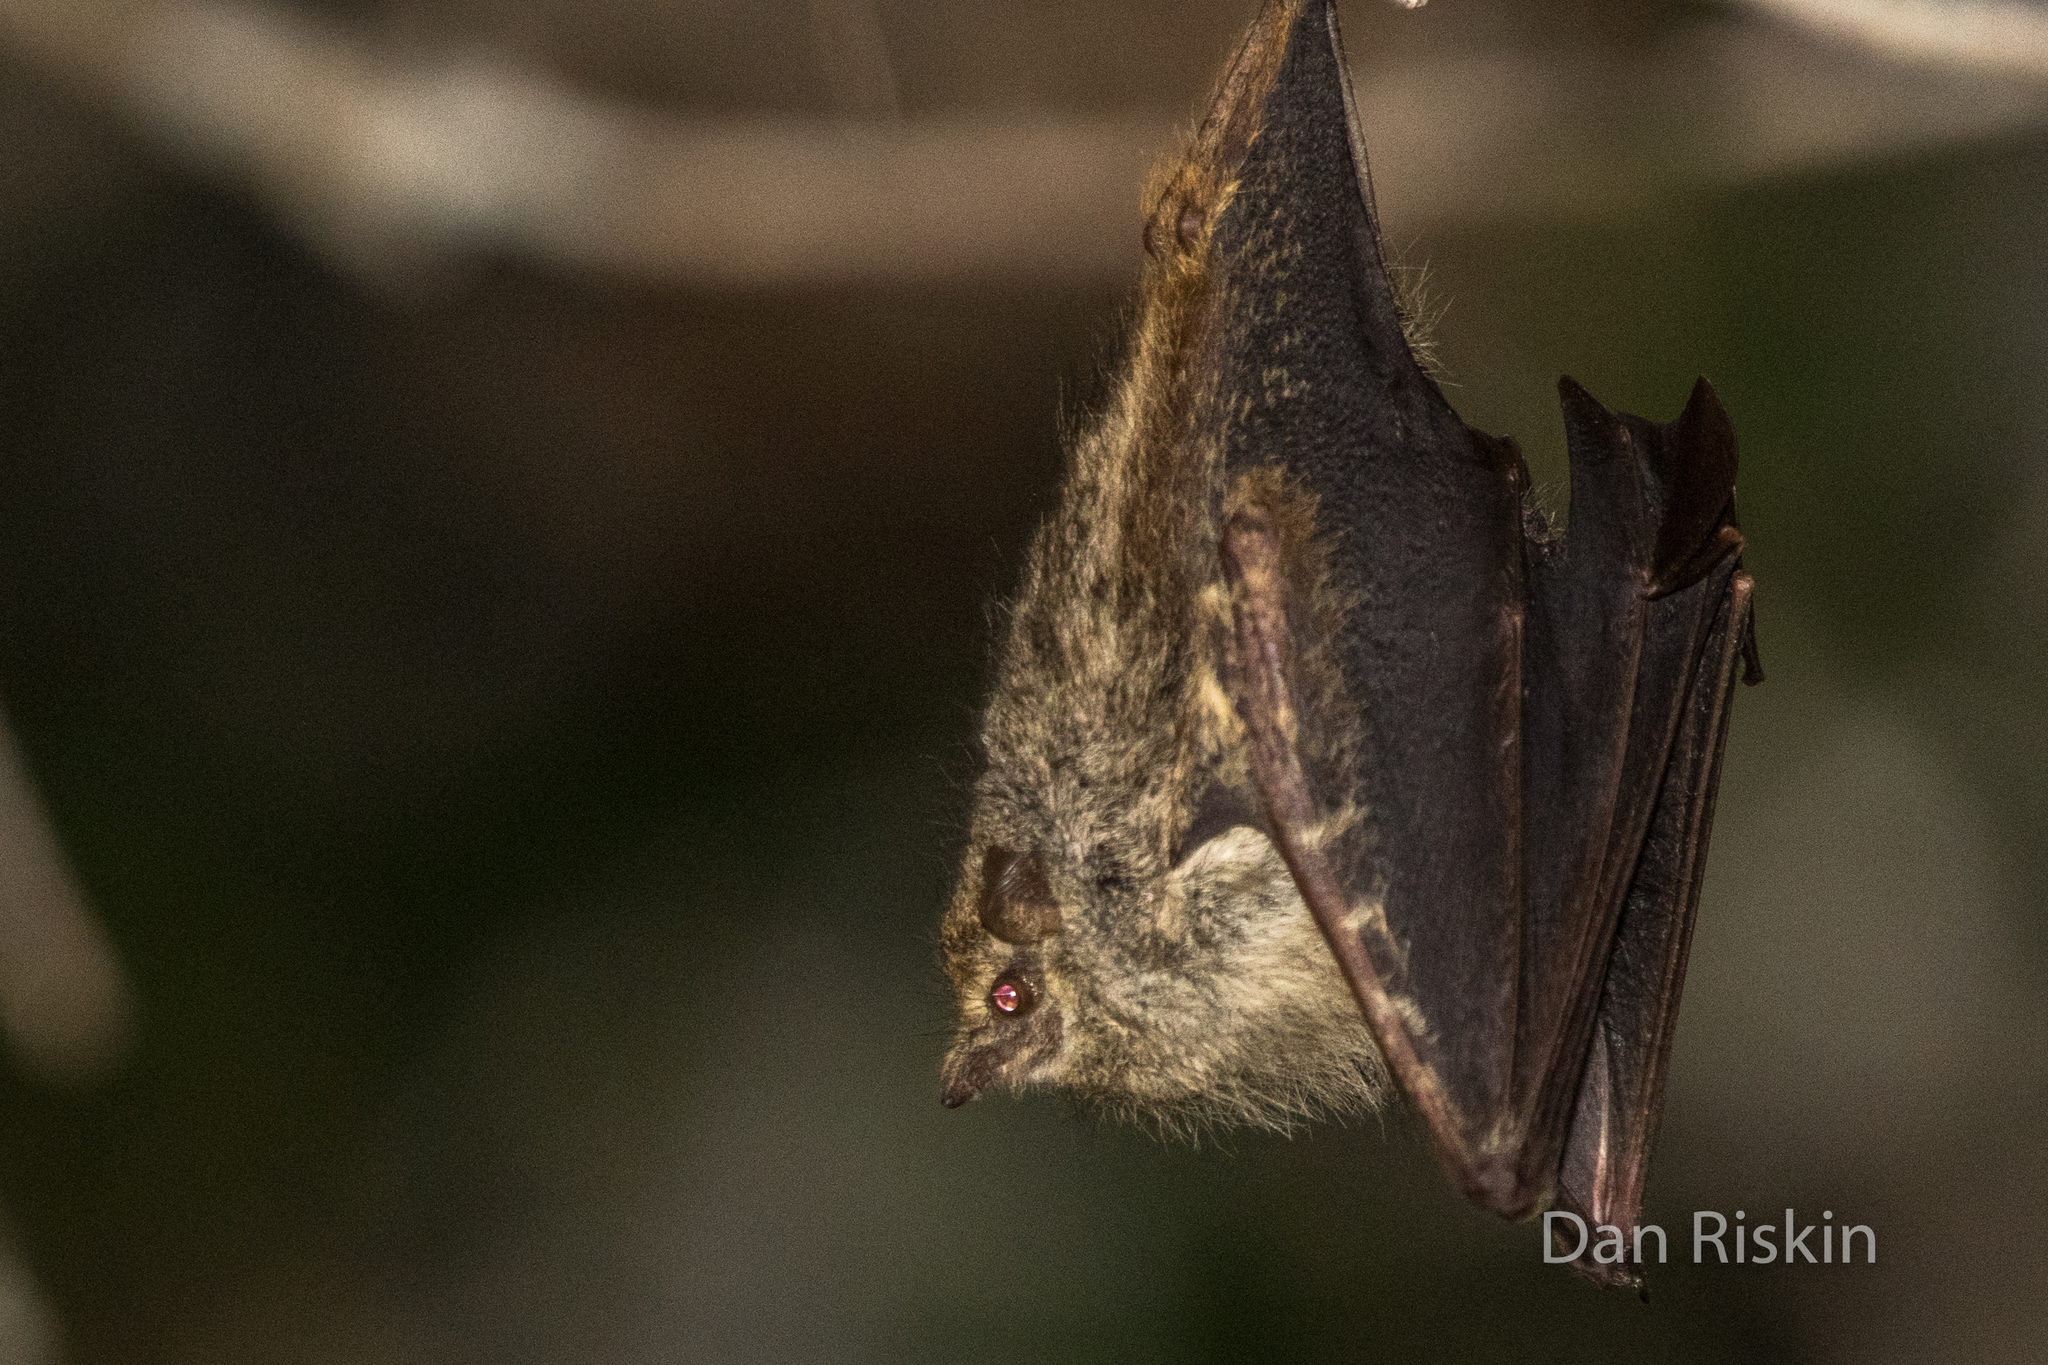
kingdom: Animalia
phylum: Chordata
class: Mammalia
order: Chiroptera
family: Emballonuridae
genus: Rhynchonycteris
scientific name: Rhynchonycteris naso
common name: Proboscis bat
